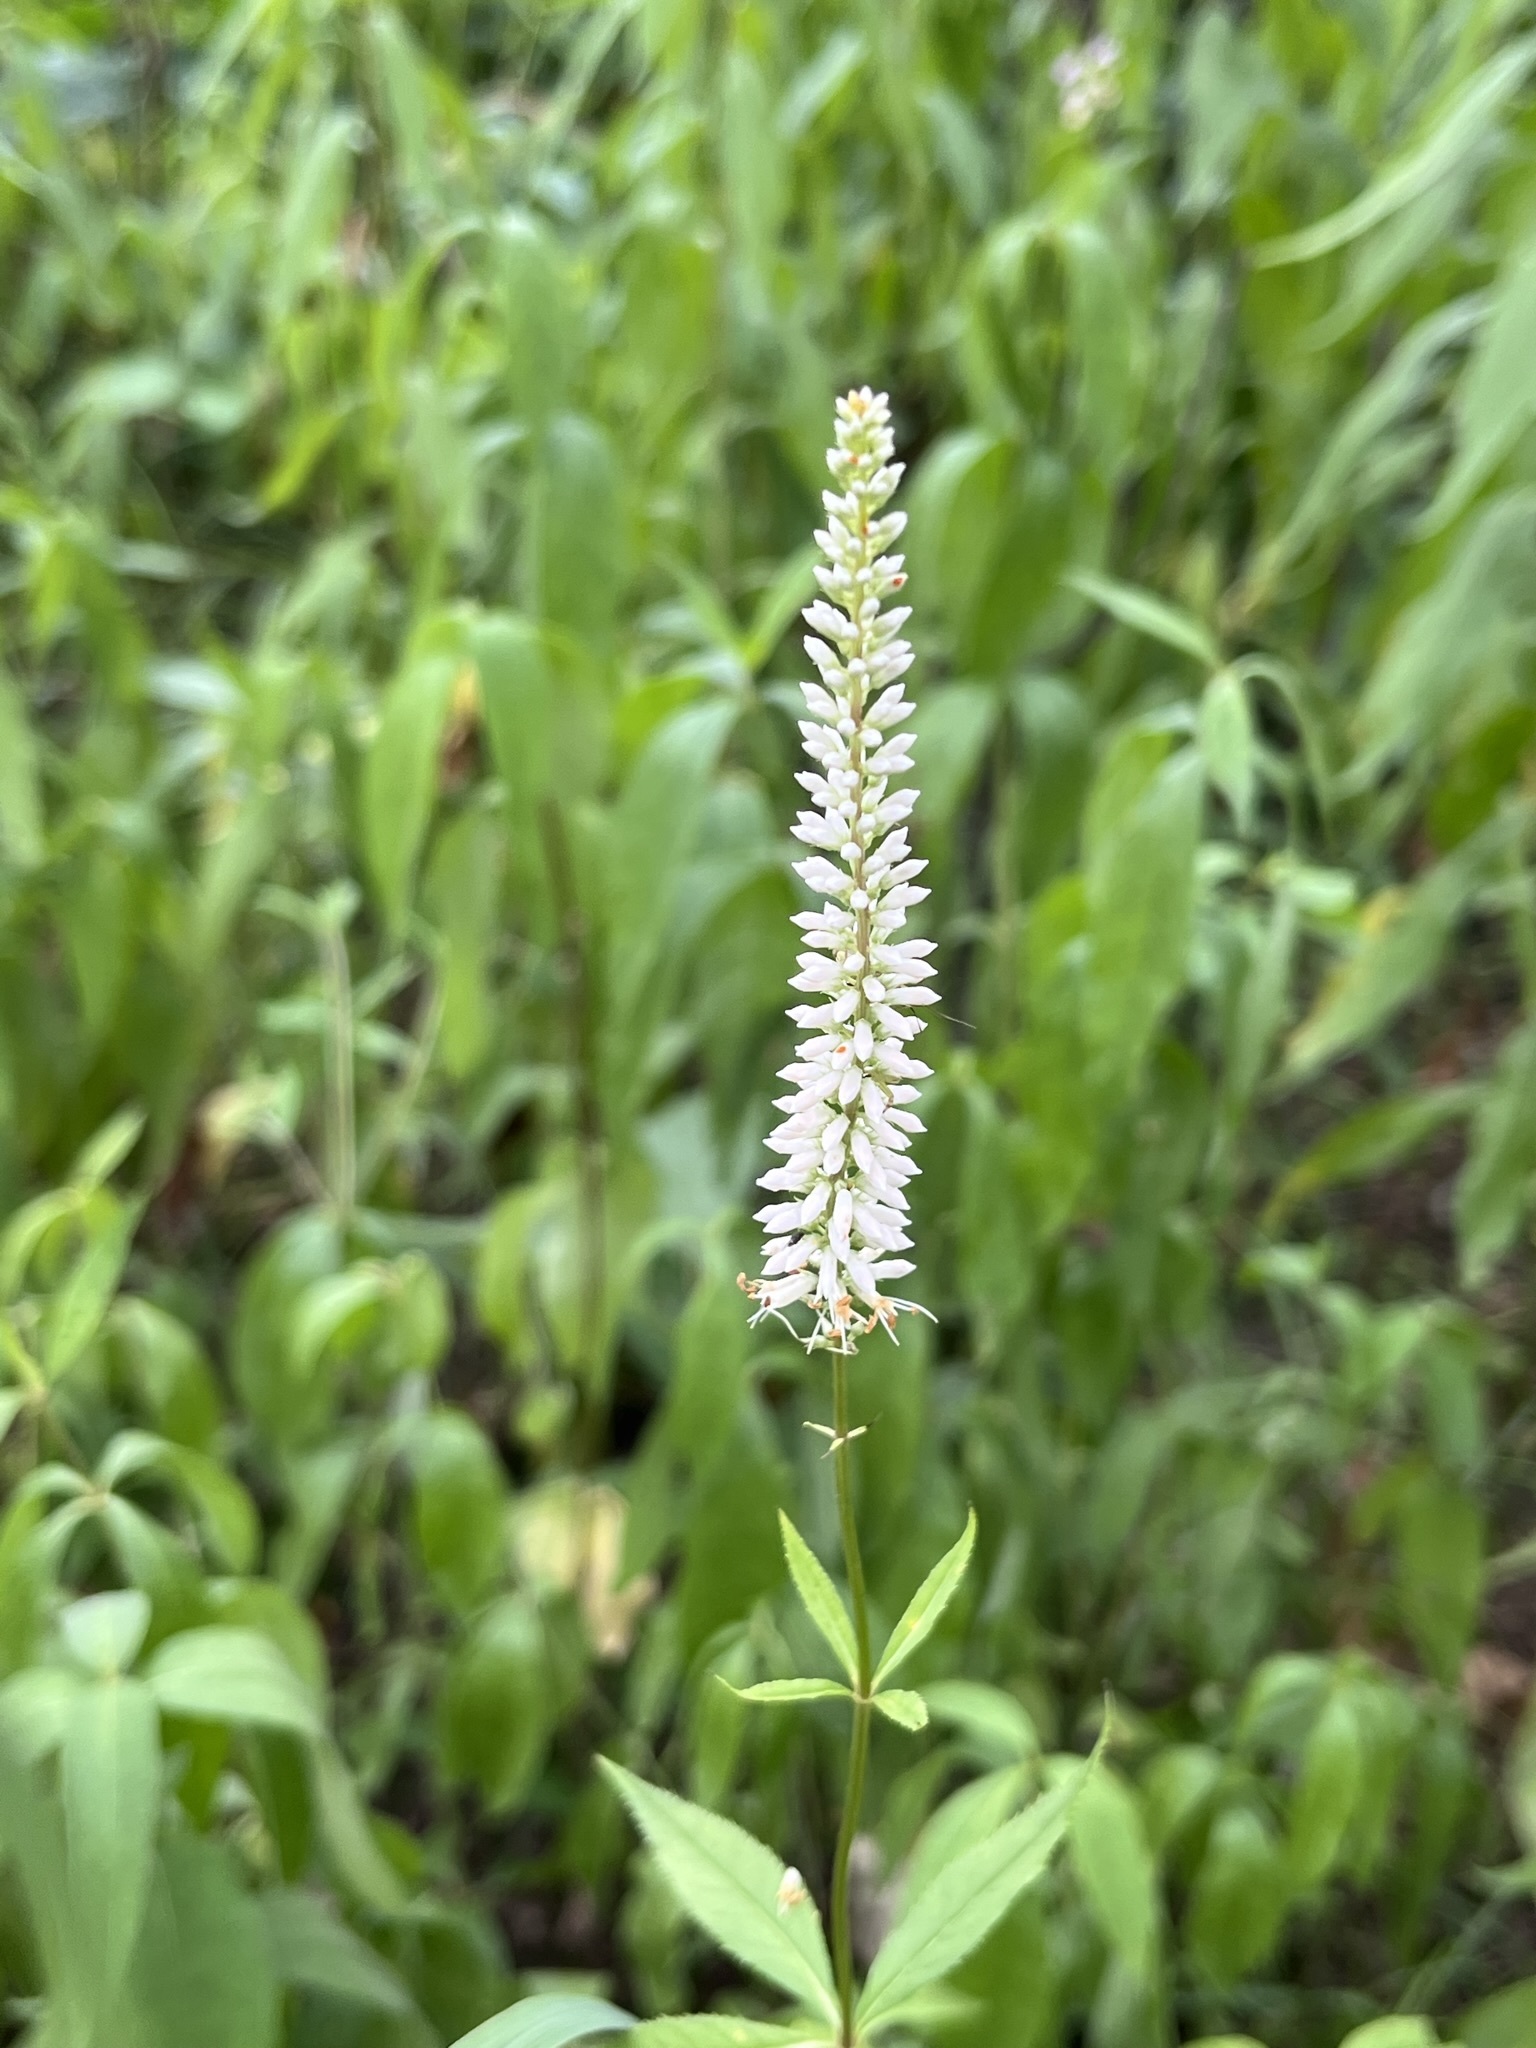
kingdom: Plantae
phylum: Tracheophyta
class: Magnoliopsida
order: Lamiales
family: Plantaginaceae
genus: Veronicastrum
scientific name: Veronicastrum virginicum
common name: Blackroot
